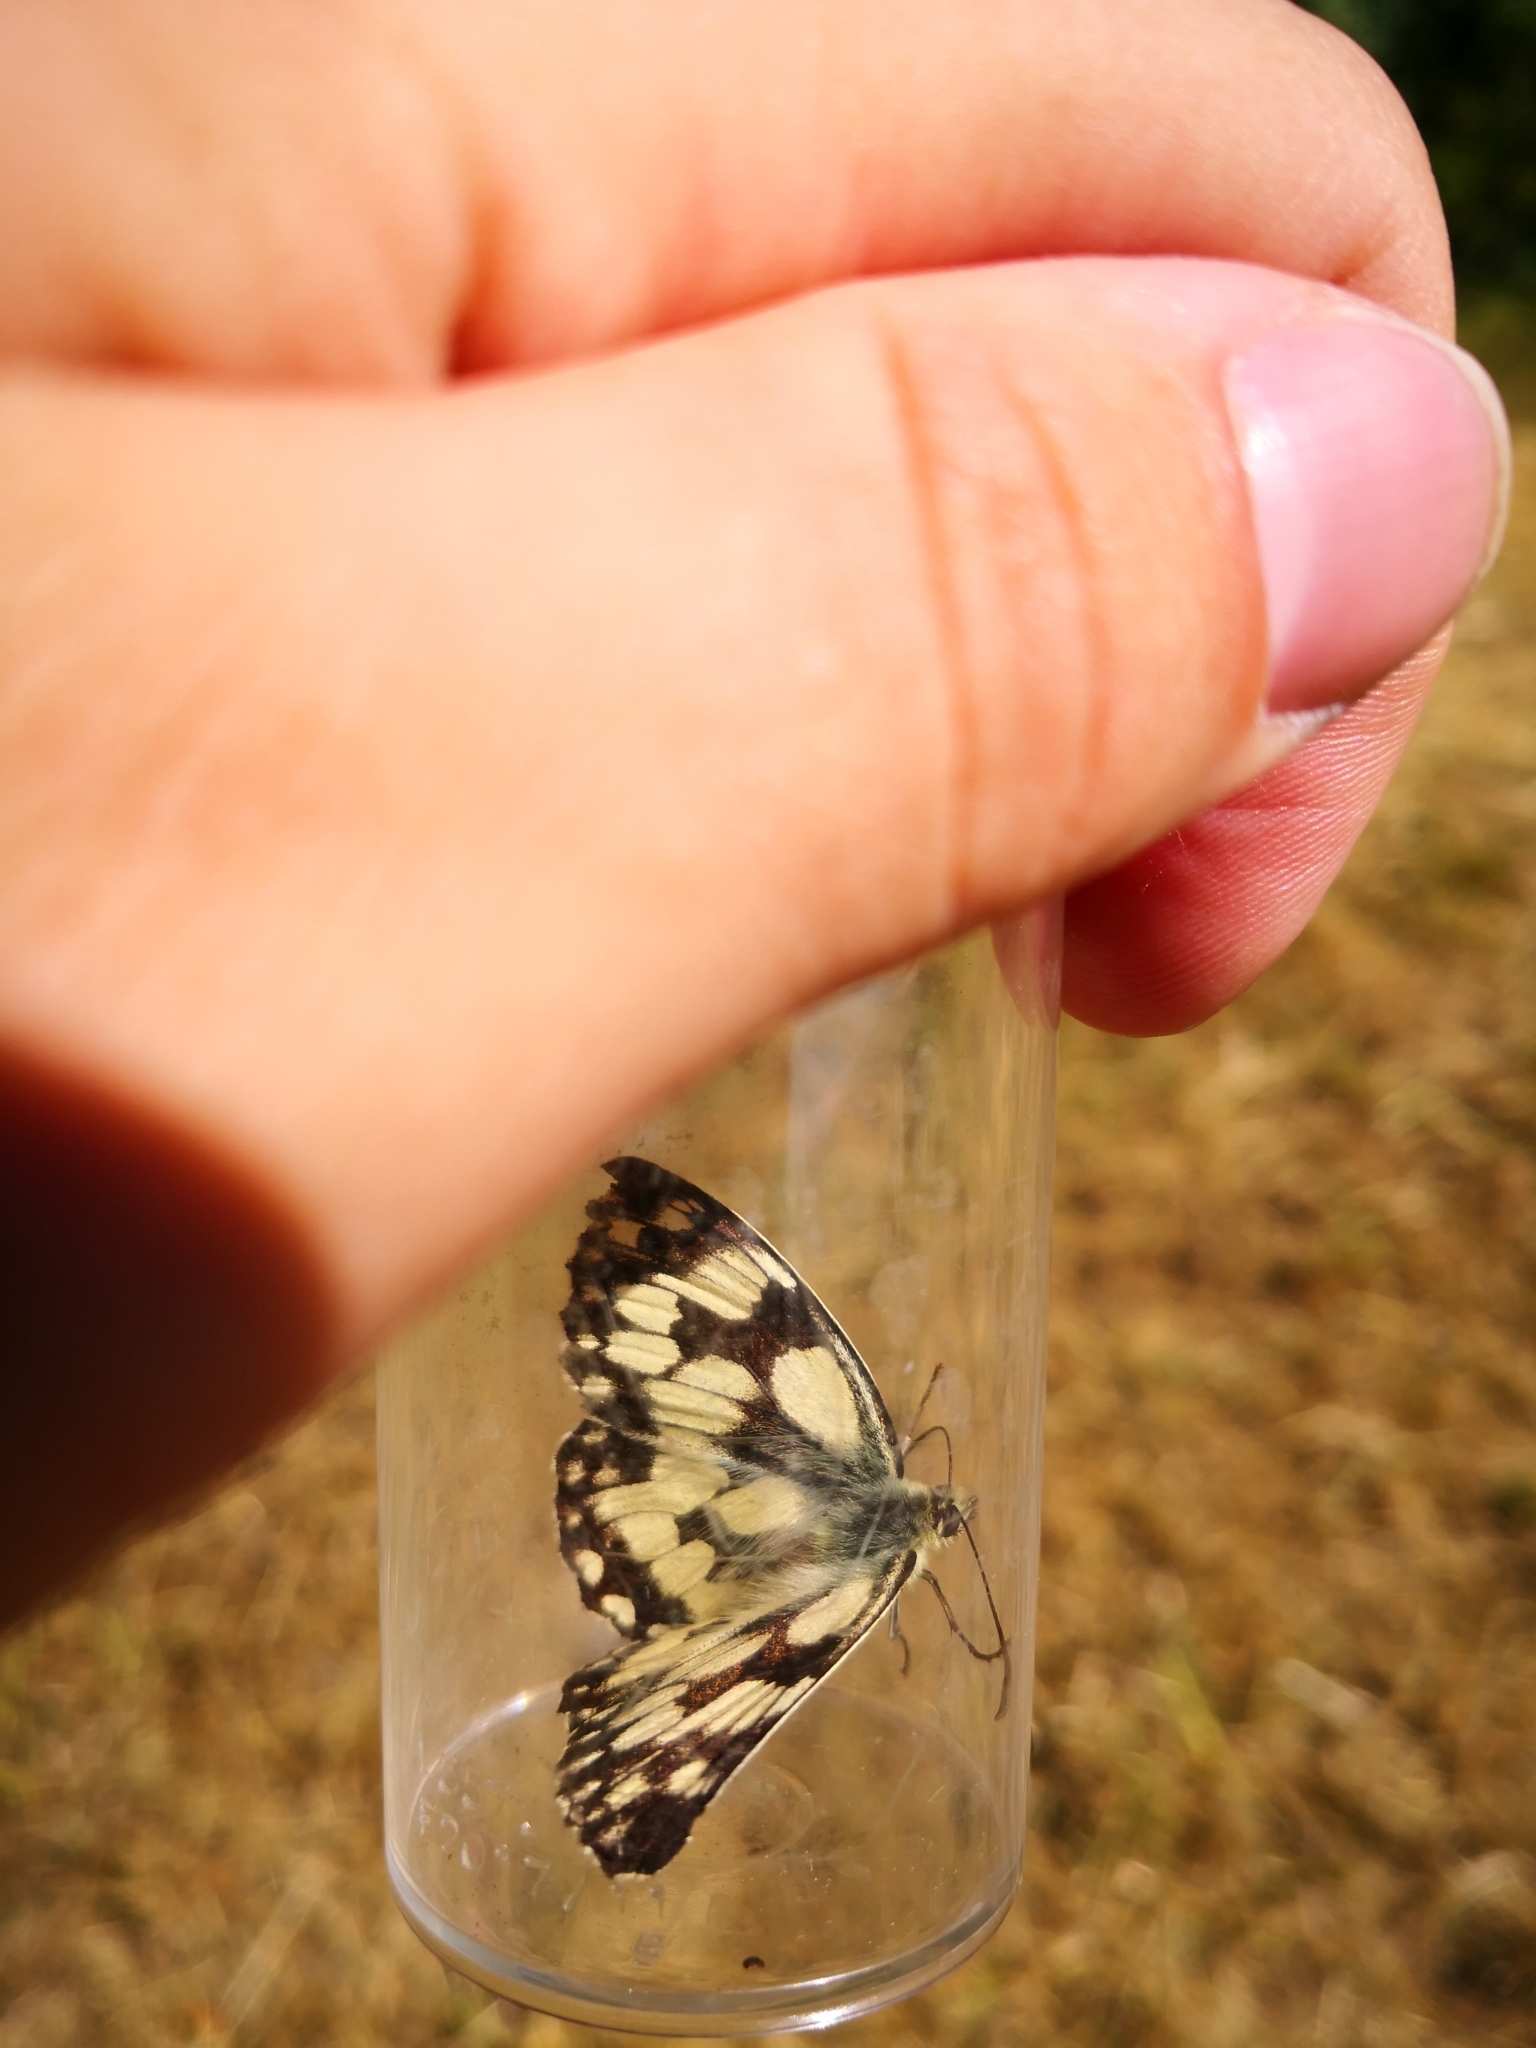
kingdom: Animalia
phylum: Arthropoda
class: Insecta
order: Lepidoptera
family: Nymphalidae
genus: Melanargia
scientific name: Melanargia galathea
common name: Marbled white
